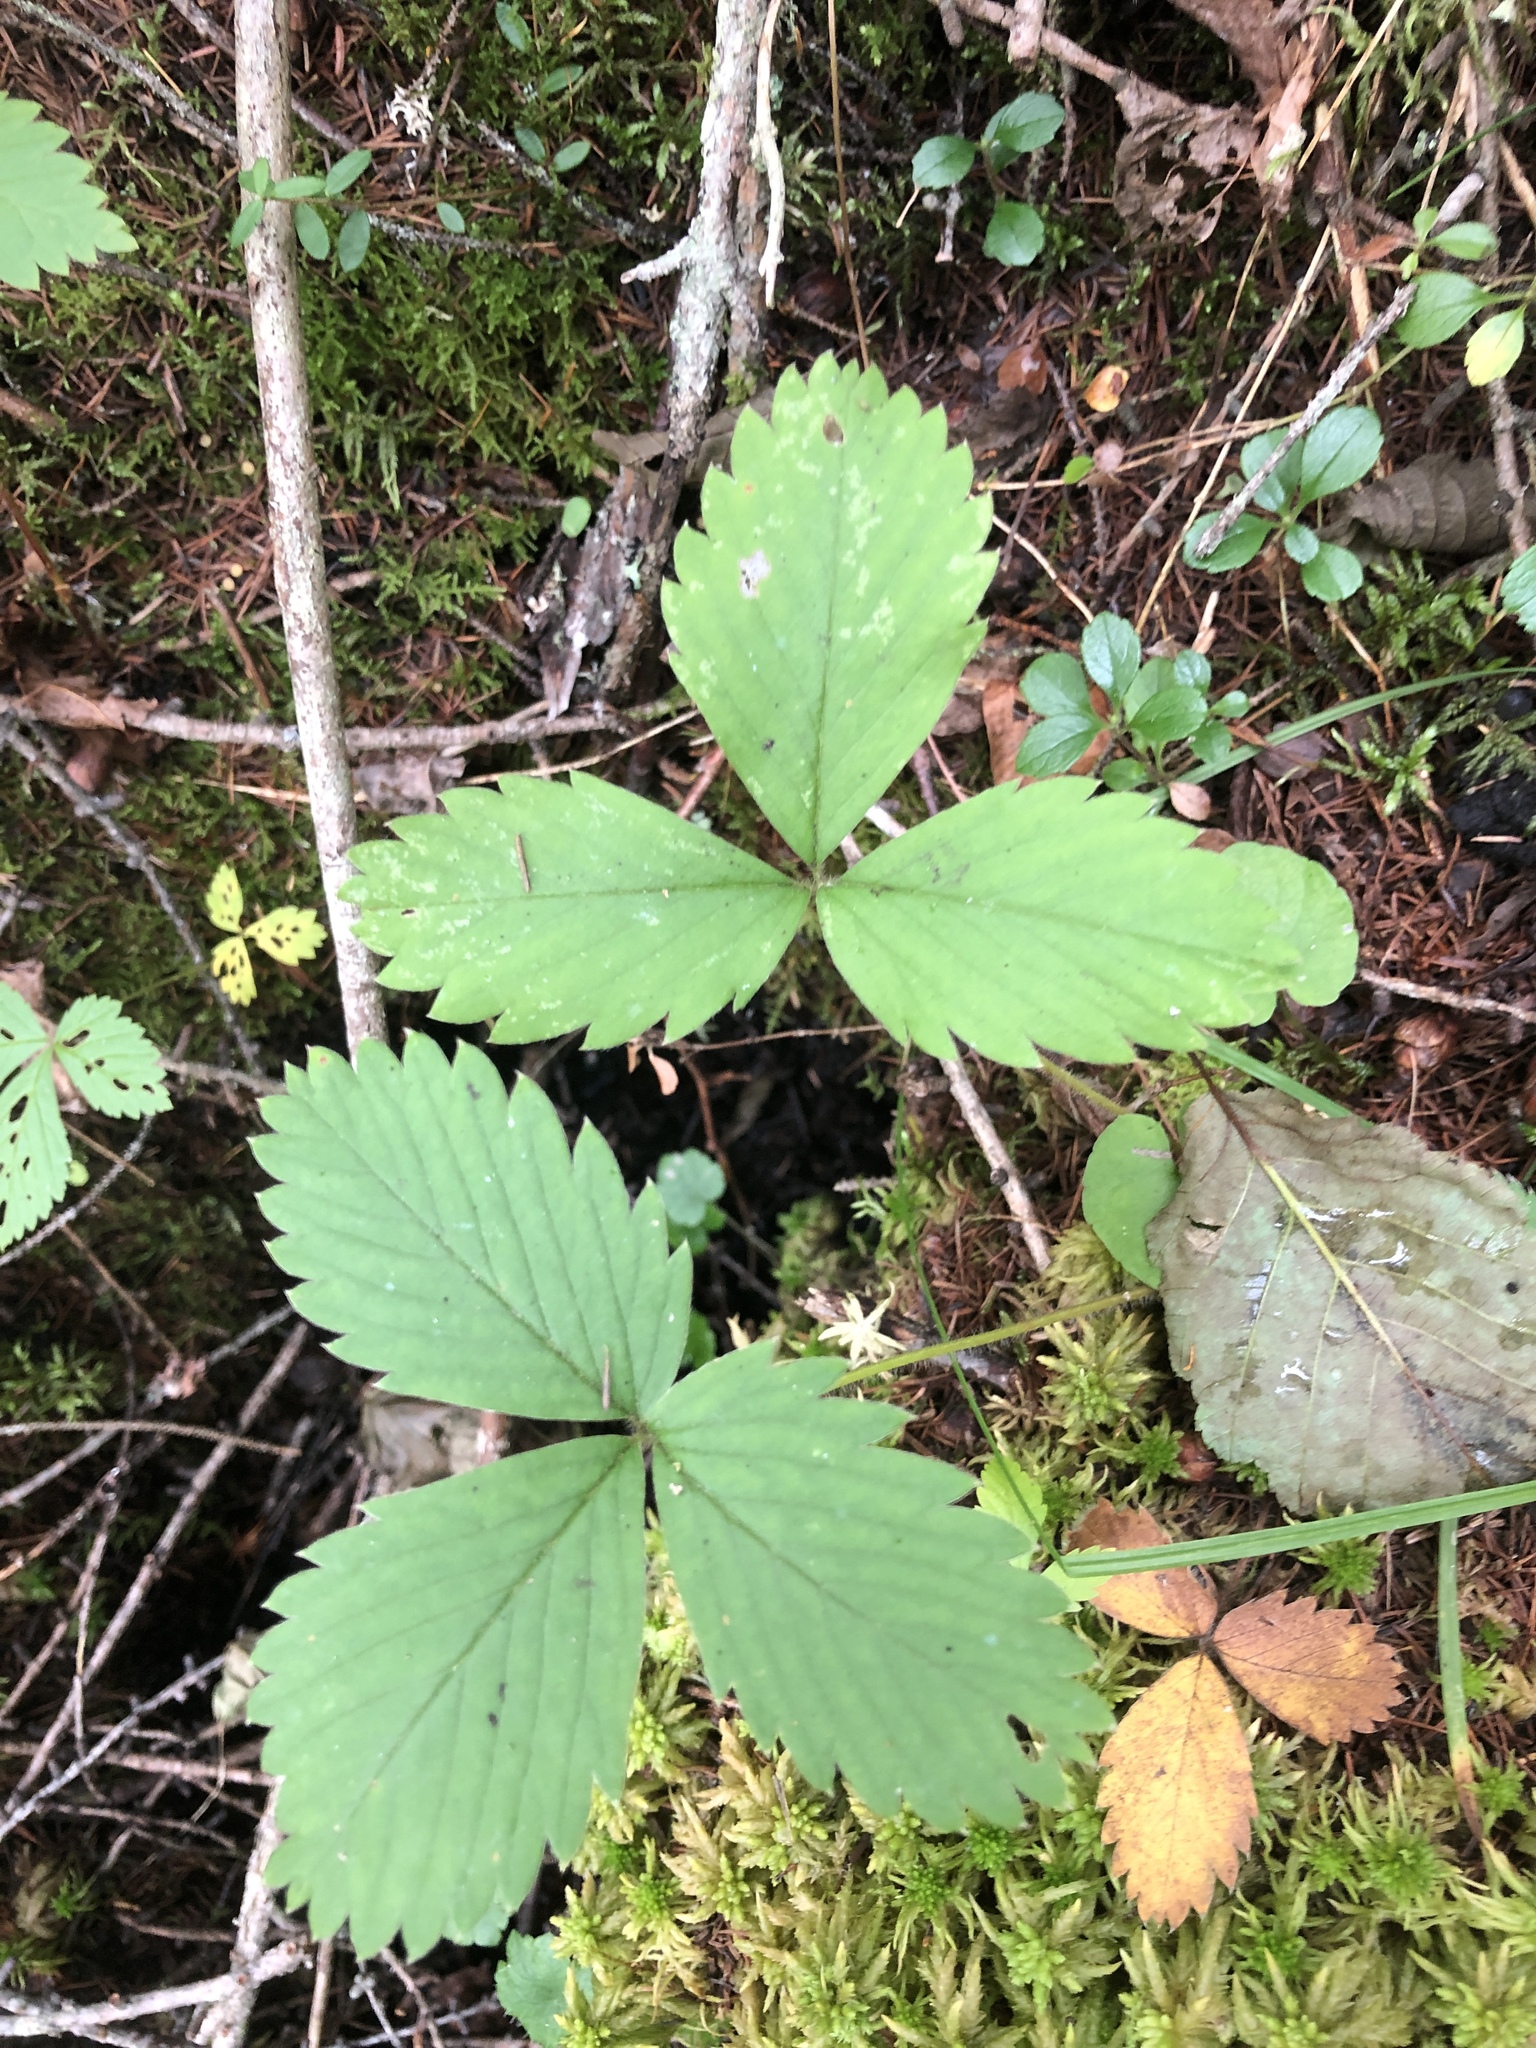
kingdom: Plantae
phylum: Tracheophyta
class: Magnoliopsida
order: Rosales
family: Rosaceae
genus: Fragaria
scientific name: Fragaria virginiana
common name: Thickleaved wild strawberry
